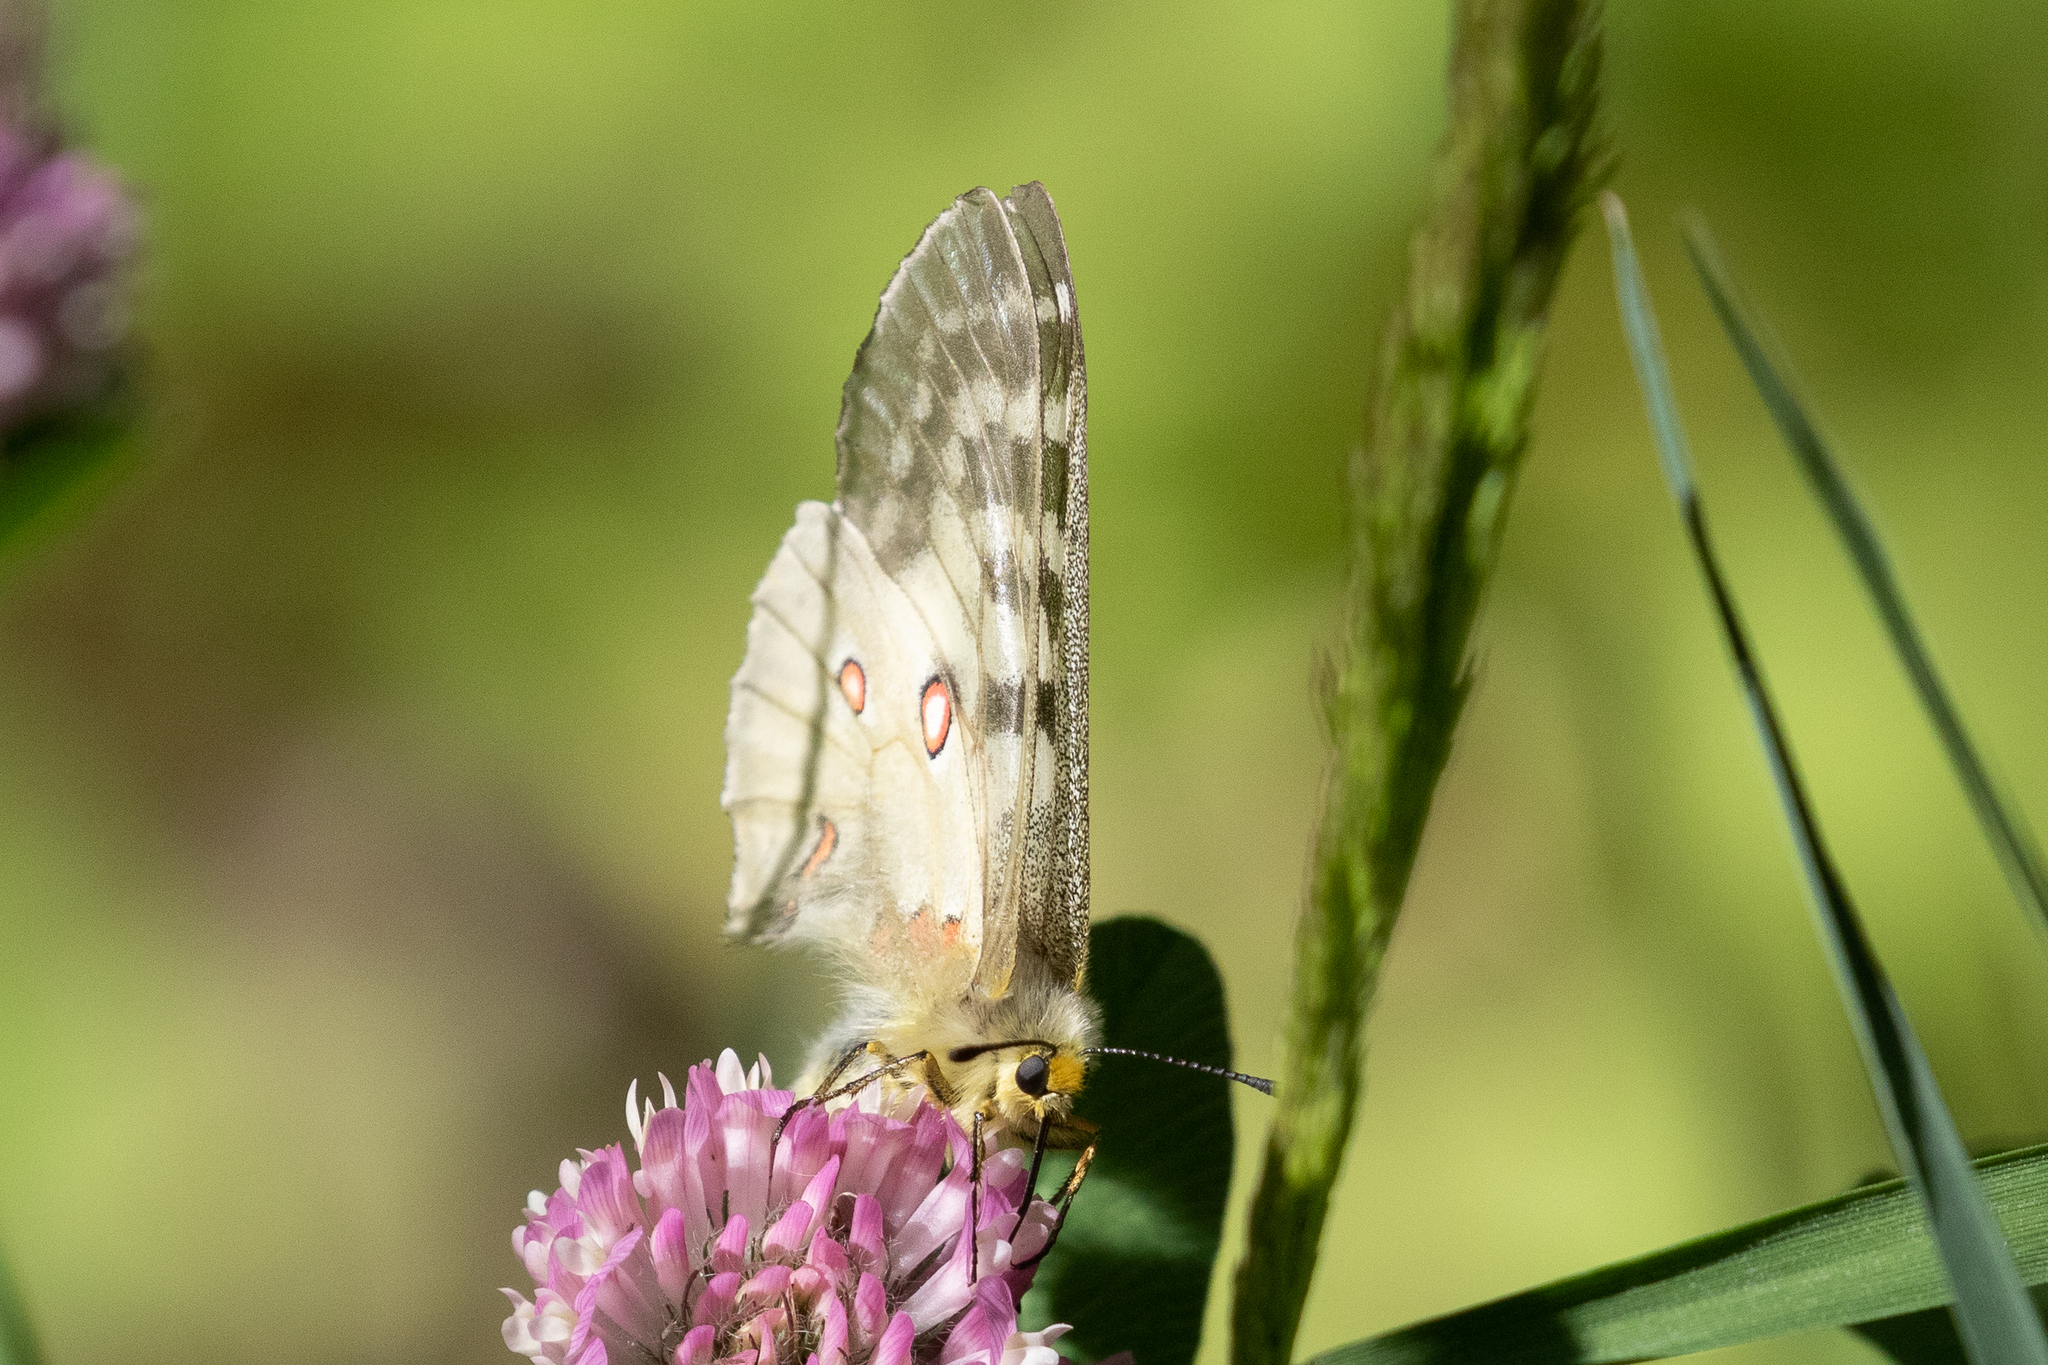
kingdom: Animalia
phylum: Arthropoda
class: Insecta
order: Lepidoptera
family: Papilionidae
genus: Parnassius
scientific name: Parnassius clodius
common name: American apollo
